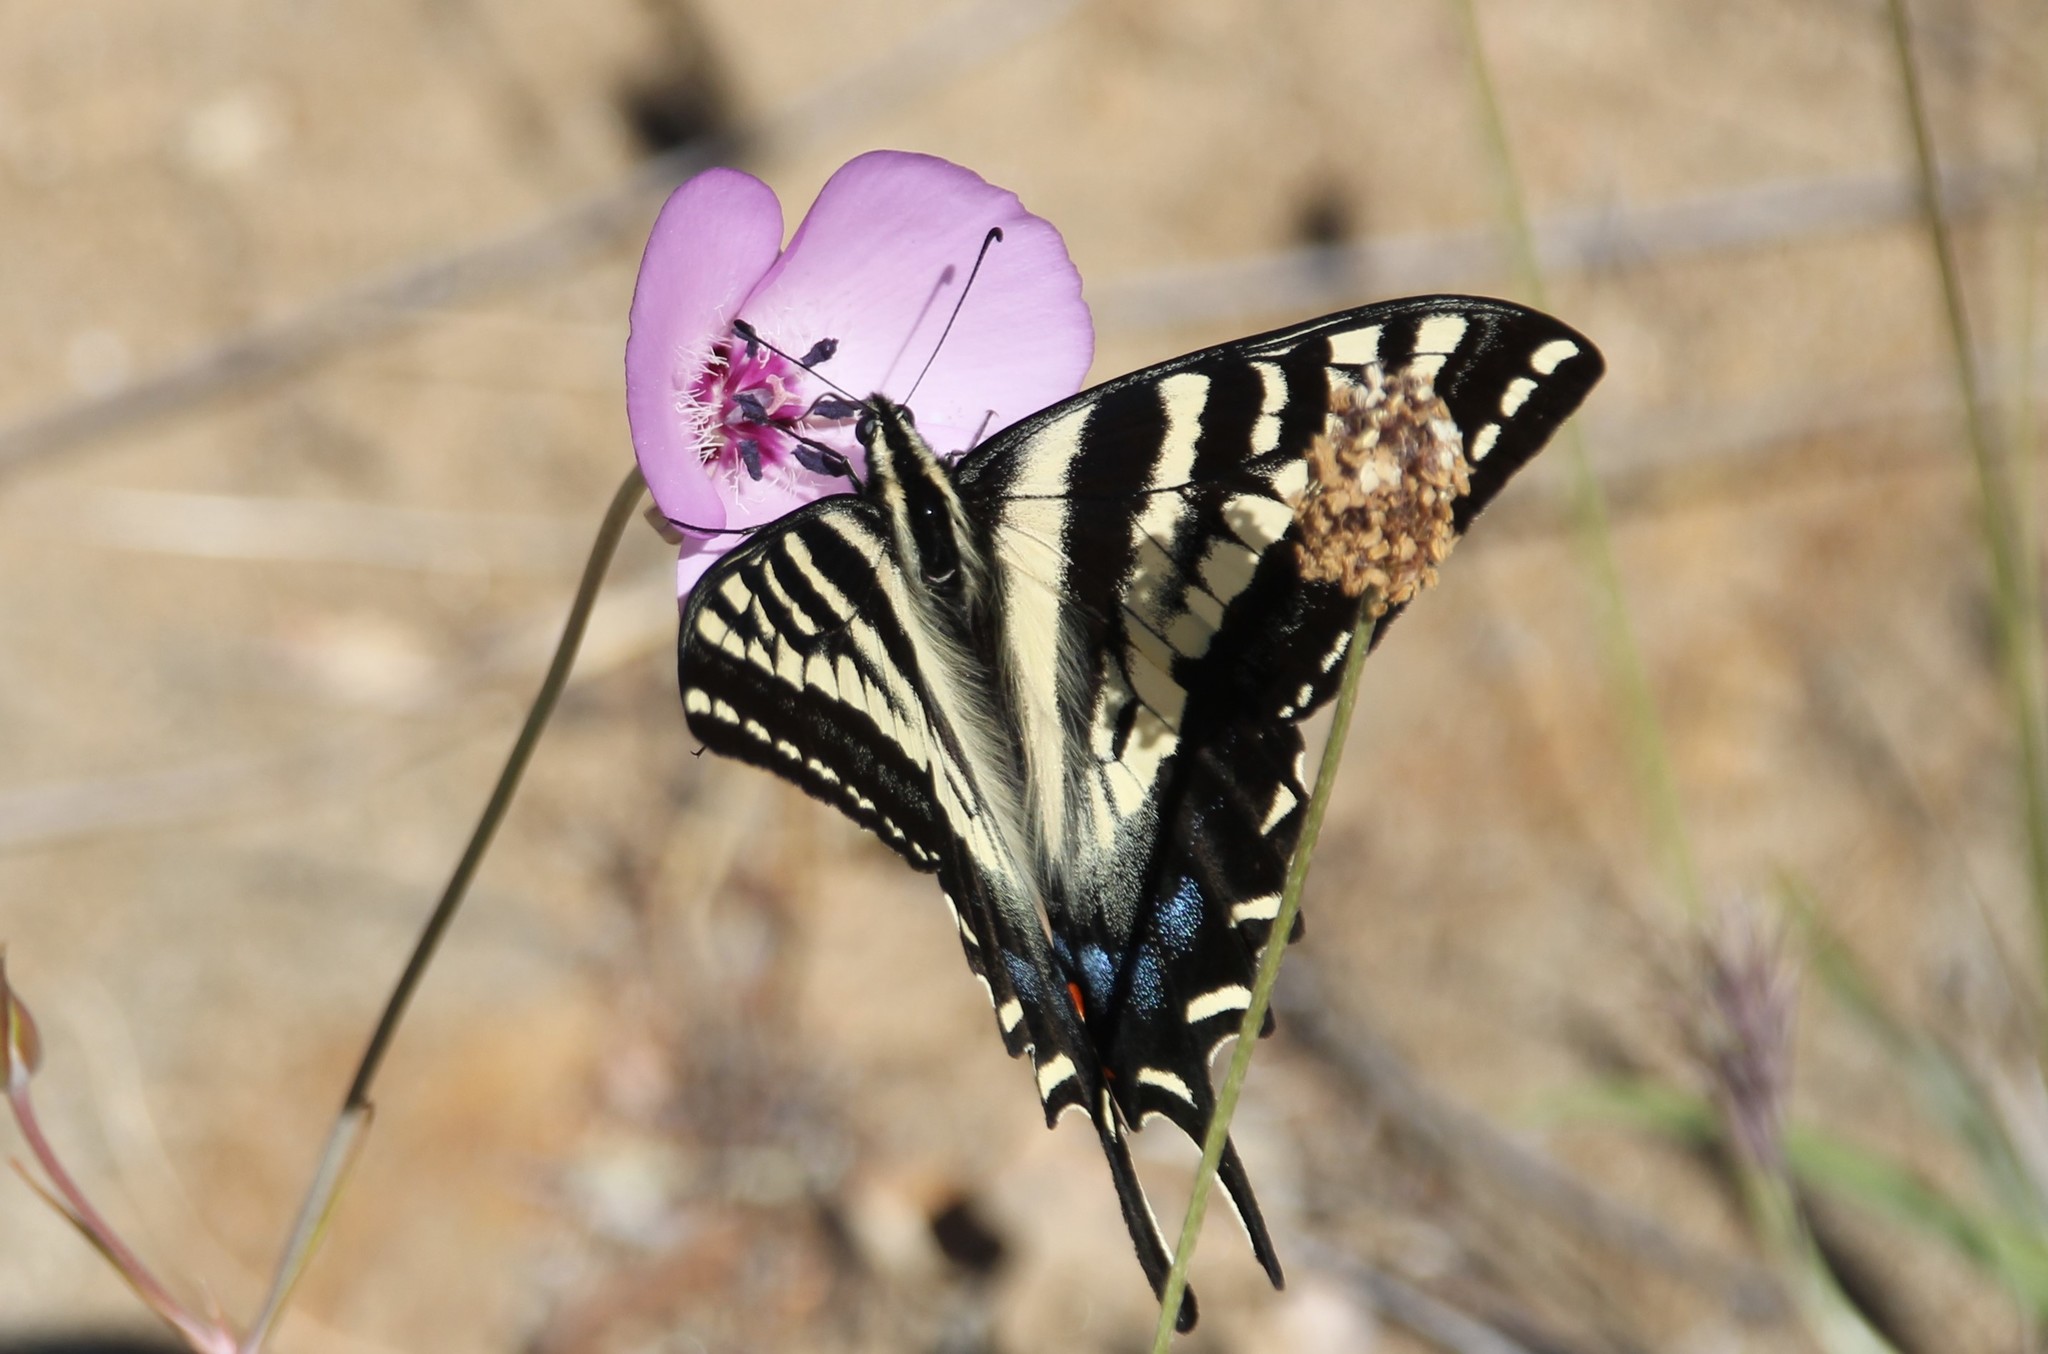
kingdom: Animalia
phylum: Arthropoda
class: Insecta
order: Lepidoptera
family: Papilionidae
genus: Papilio
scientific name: Papilio eurymedon
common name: Pale tiger swallowtail
